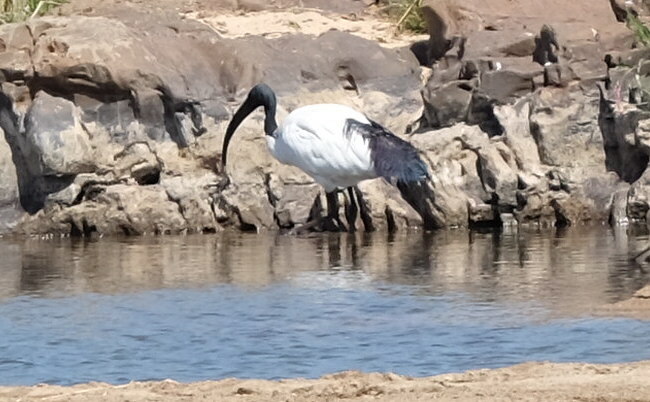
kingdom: Animalia
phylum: Chordata
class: Aves
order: Pelecaniformes
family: Threskiornithidae
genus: Threskiornis
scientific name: Threskiornis aethiopicus
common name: Sacred ibis
